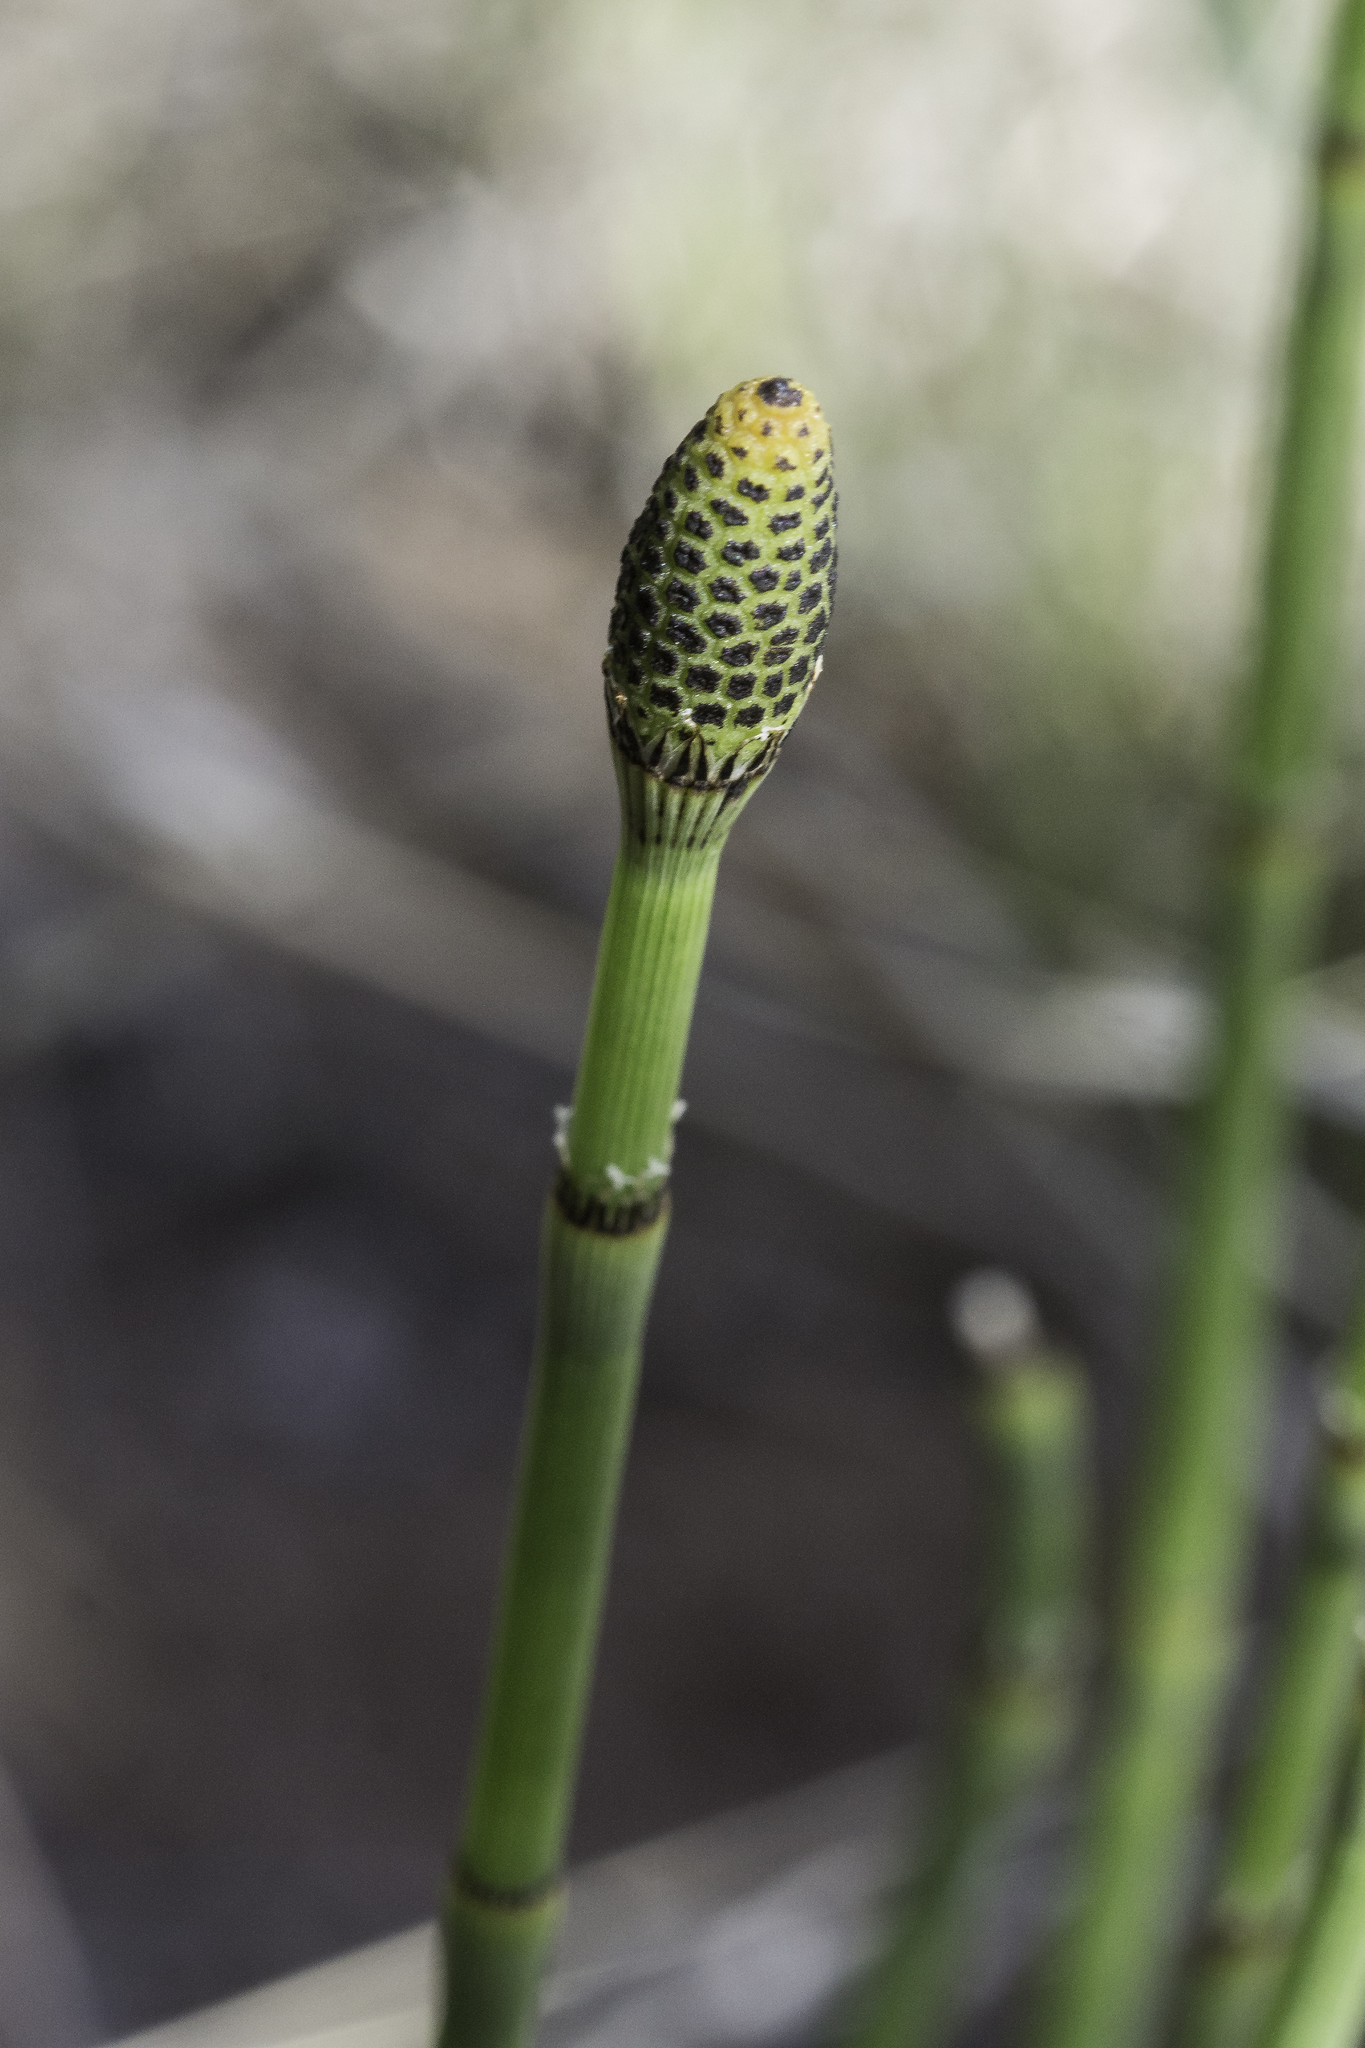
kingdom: Plantae
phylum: Tracheophyta
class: Polypodiopsida
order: Equisetales
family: Equisetaceae
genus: Equisetum
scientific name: Equisetum hyemale
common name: Rough horsetail
